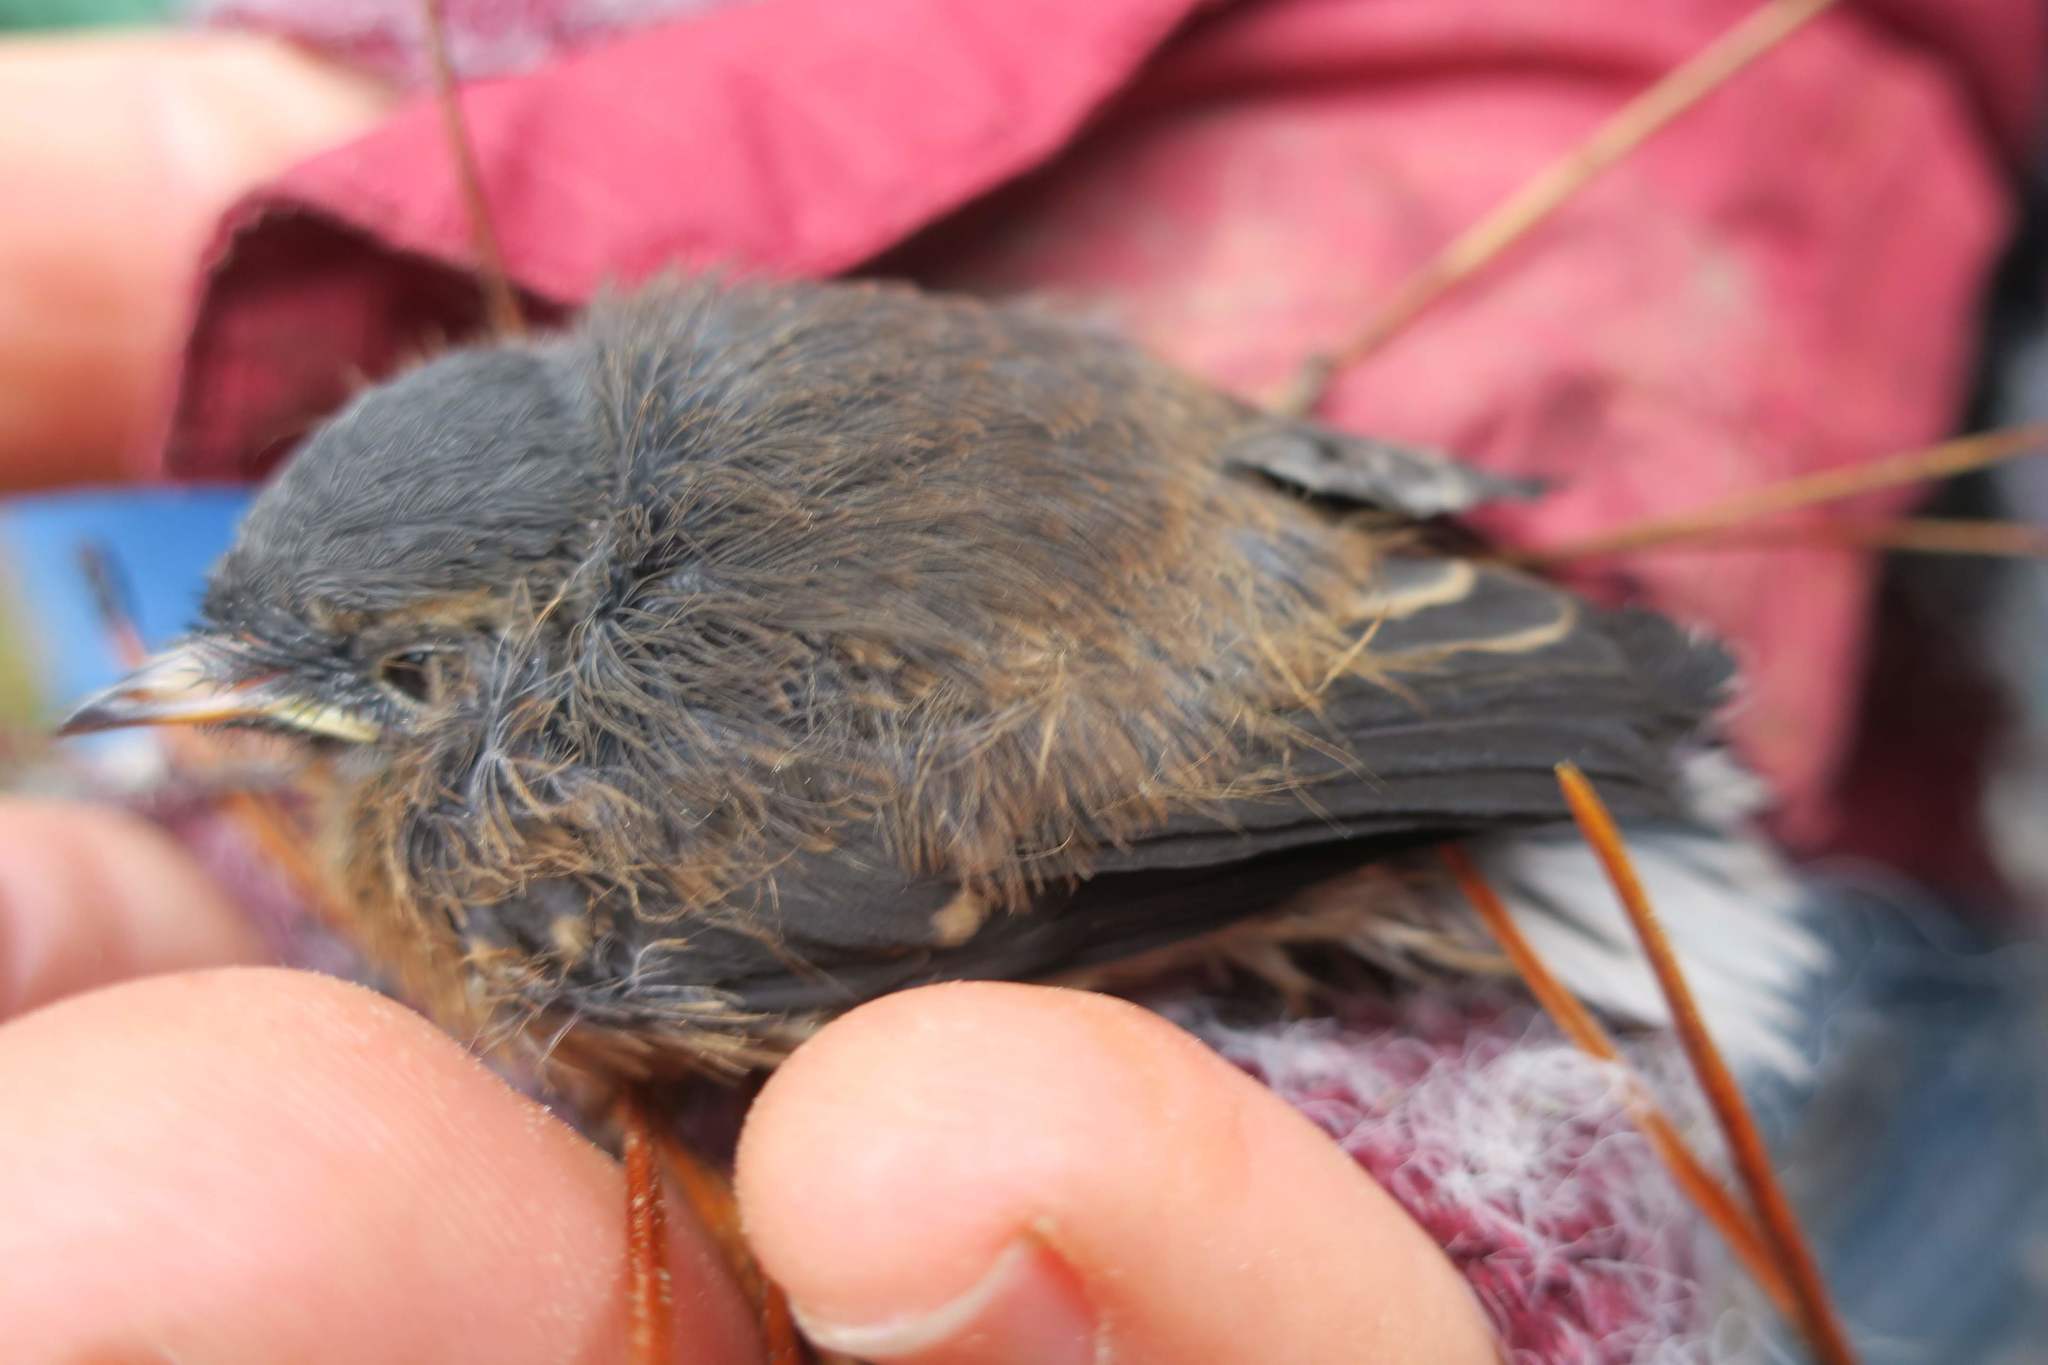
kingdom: Animalia
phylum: Chordata
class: Aves
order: Passeriformes
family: Turdidae
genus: Turdus
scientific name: Turdus merula
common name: Common blackbird
